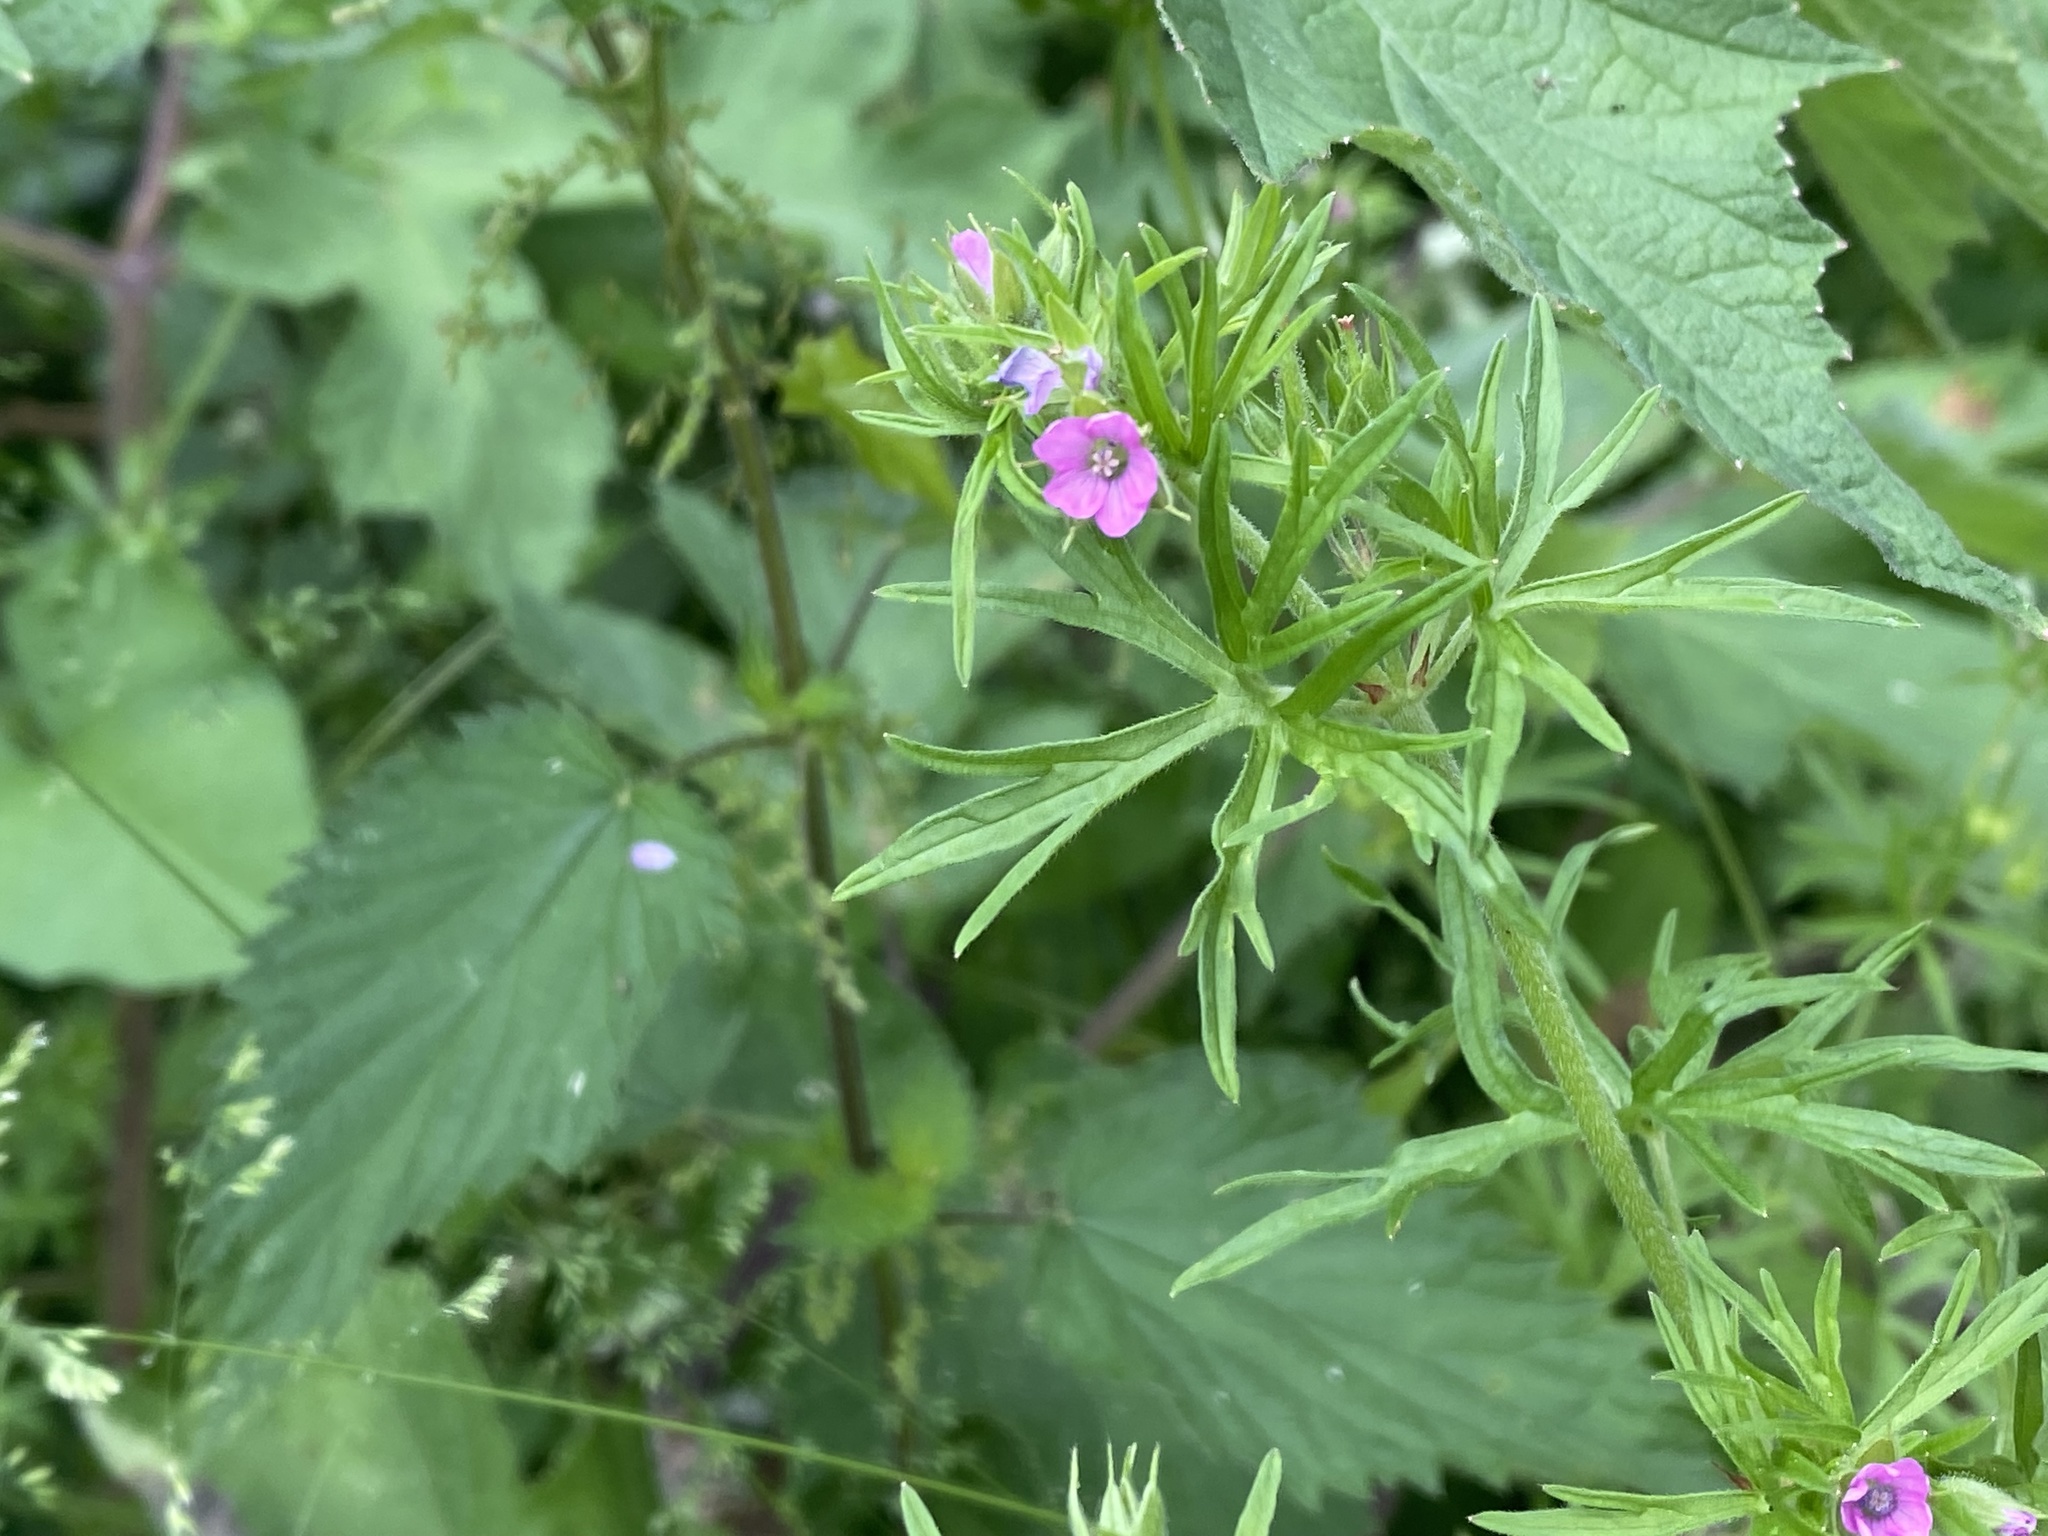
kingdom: Plantae
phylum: Tracheophyta
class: Magnoliopsida
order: Geraniales
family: Geraniaceae
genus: Geranium
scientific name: Geranium dissectum
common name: Cut-leaved crane's-bill
